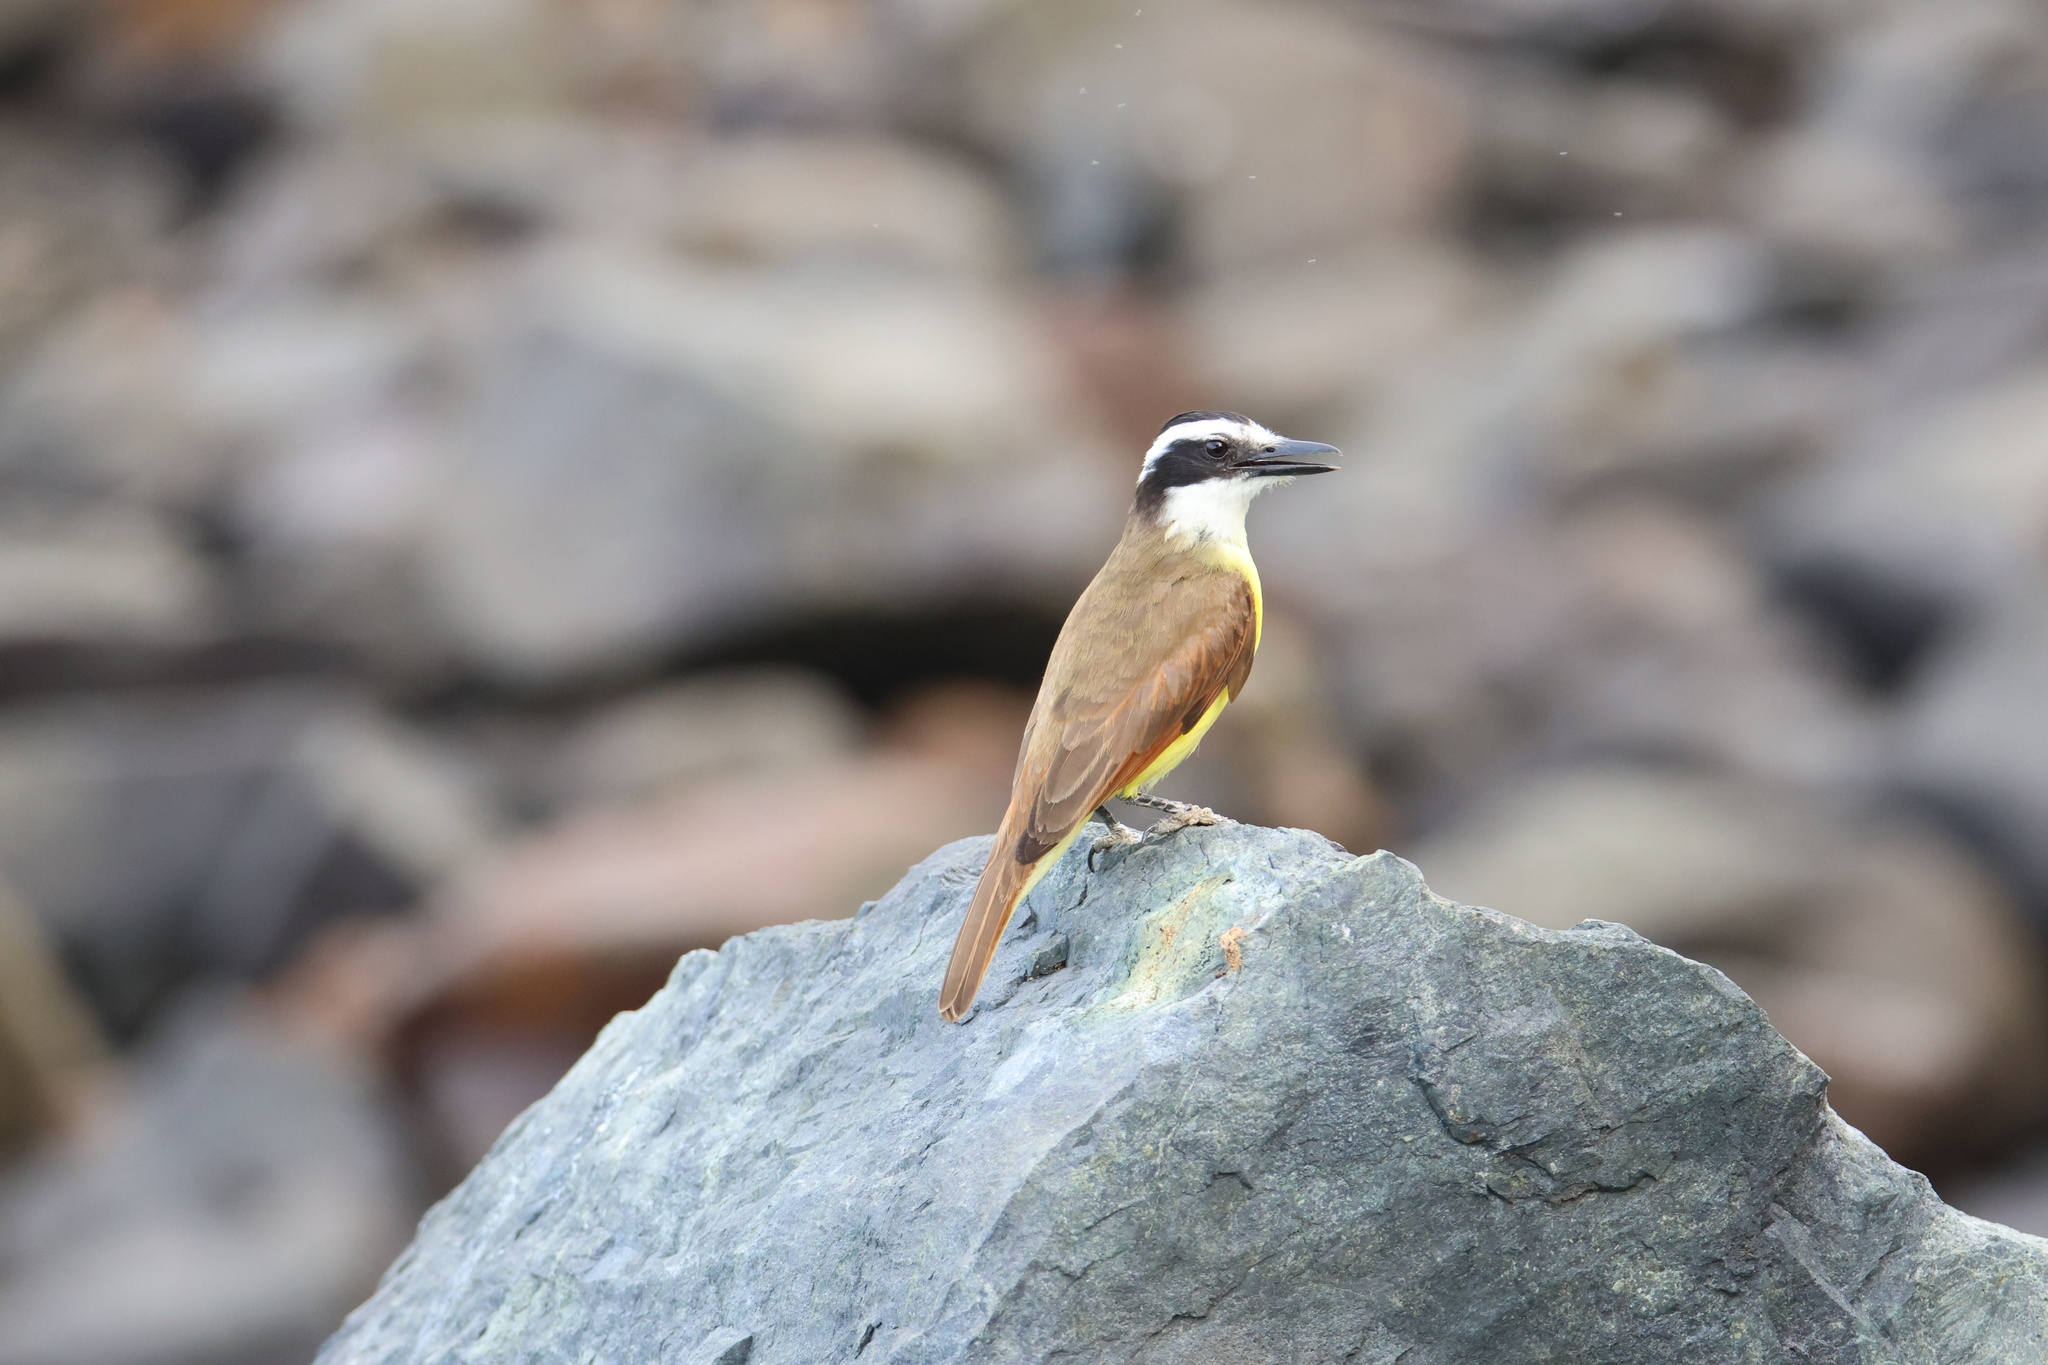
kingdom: Animalia
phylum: Chordata
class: Aves
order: Passeriformes
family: Tyrannidae
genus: Pitangus
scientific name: Pitangus sulphuratus
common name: Great kiskadee
